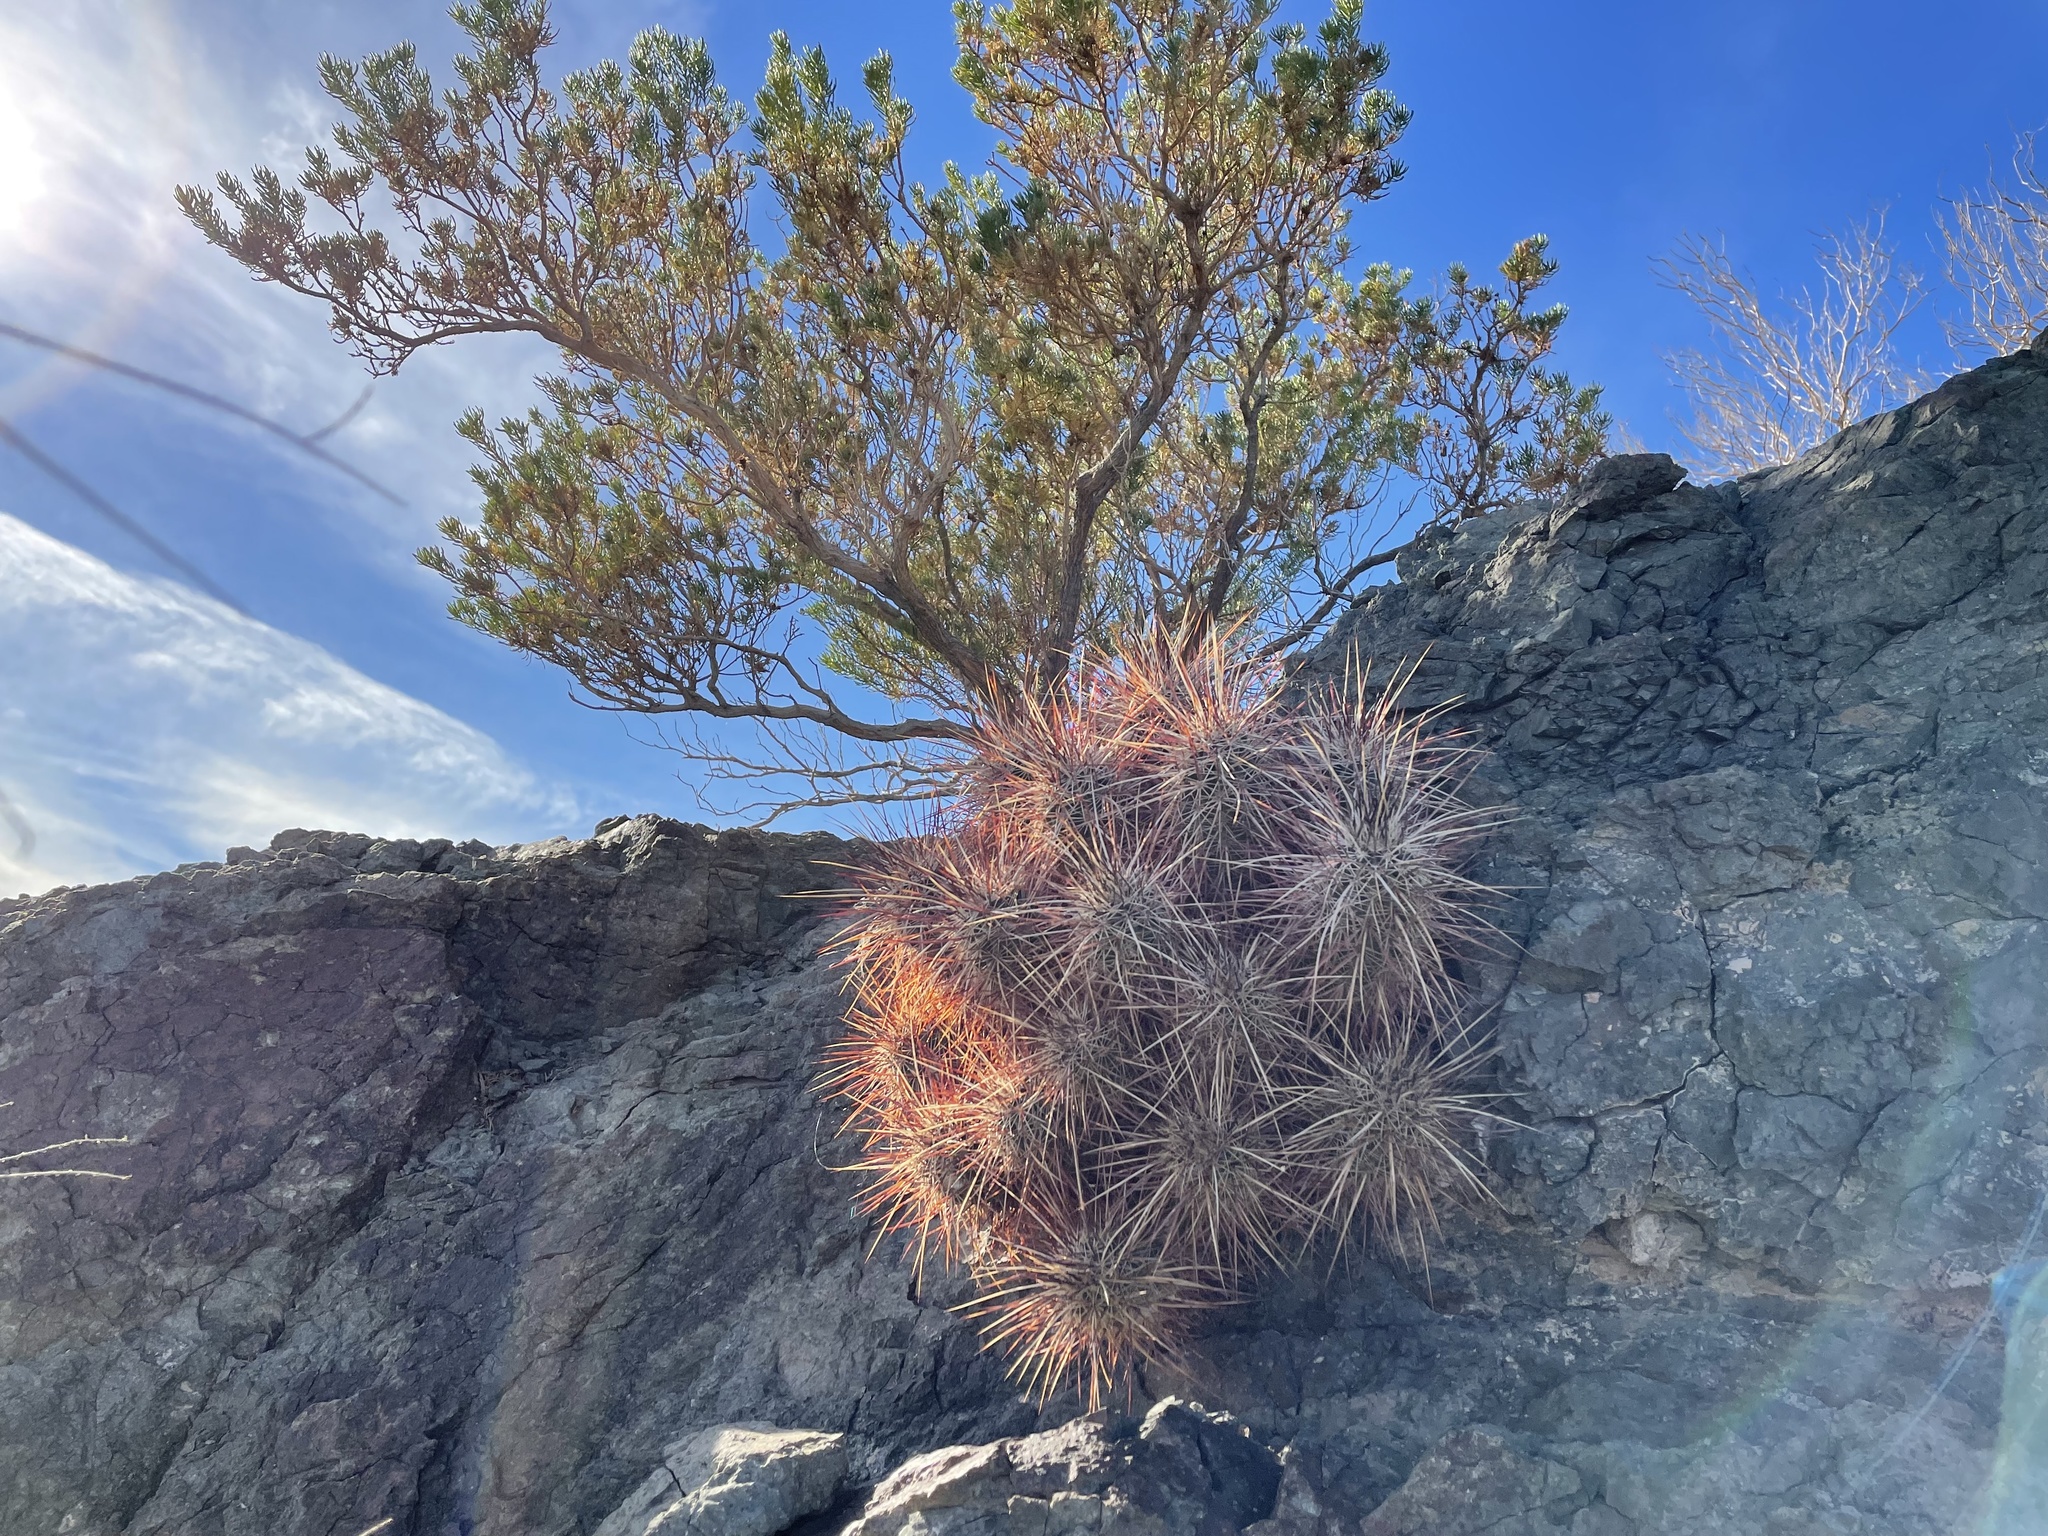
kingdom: Plantae
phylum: Tracheophyta
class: Magnoliopsida
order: Caryophyllales
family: Cactaceae
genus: Echinocereus
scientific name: Echinocereus engelmannii
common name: Engelmann's hedgehog cactus
